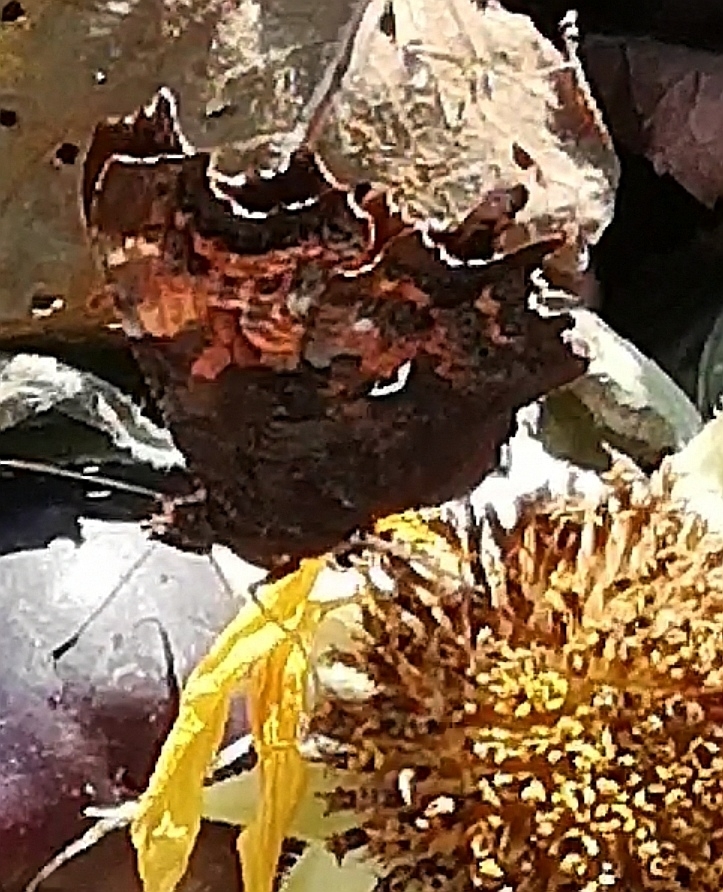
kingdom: Animalia
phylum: Arthropoda
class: Insecta
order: Lepidoptera
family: Nymphalidae
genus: Polygonia
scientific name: Polygonia c-album
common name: Comma
